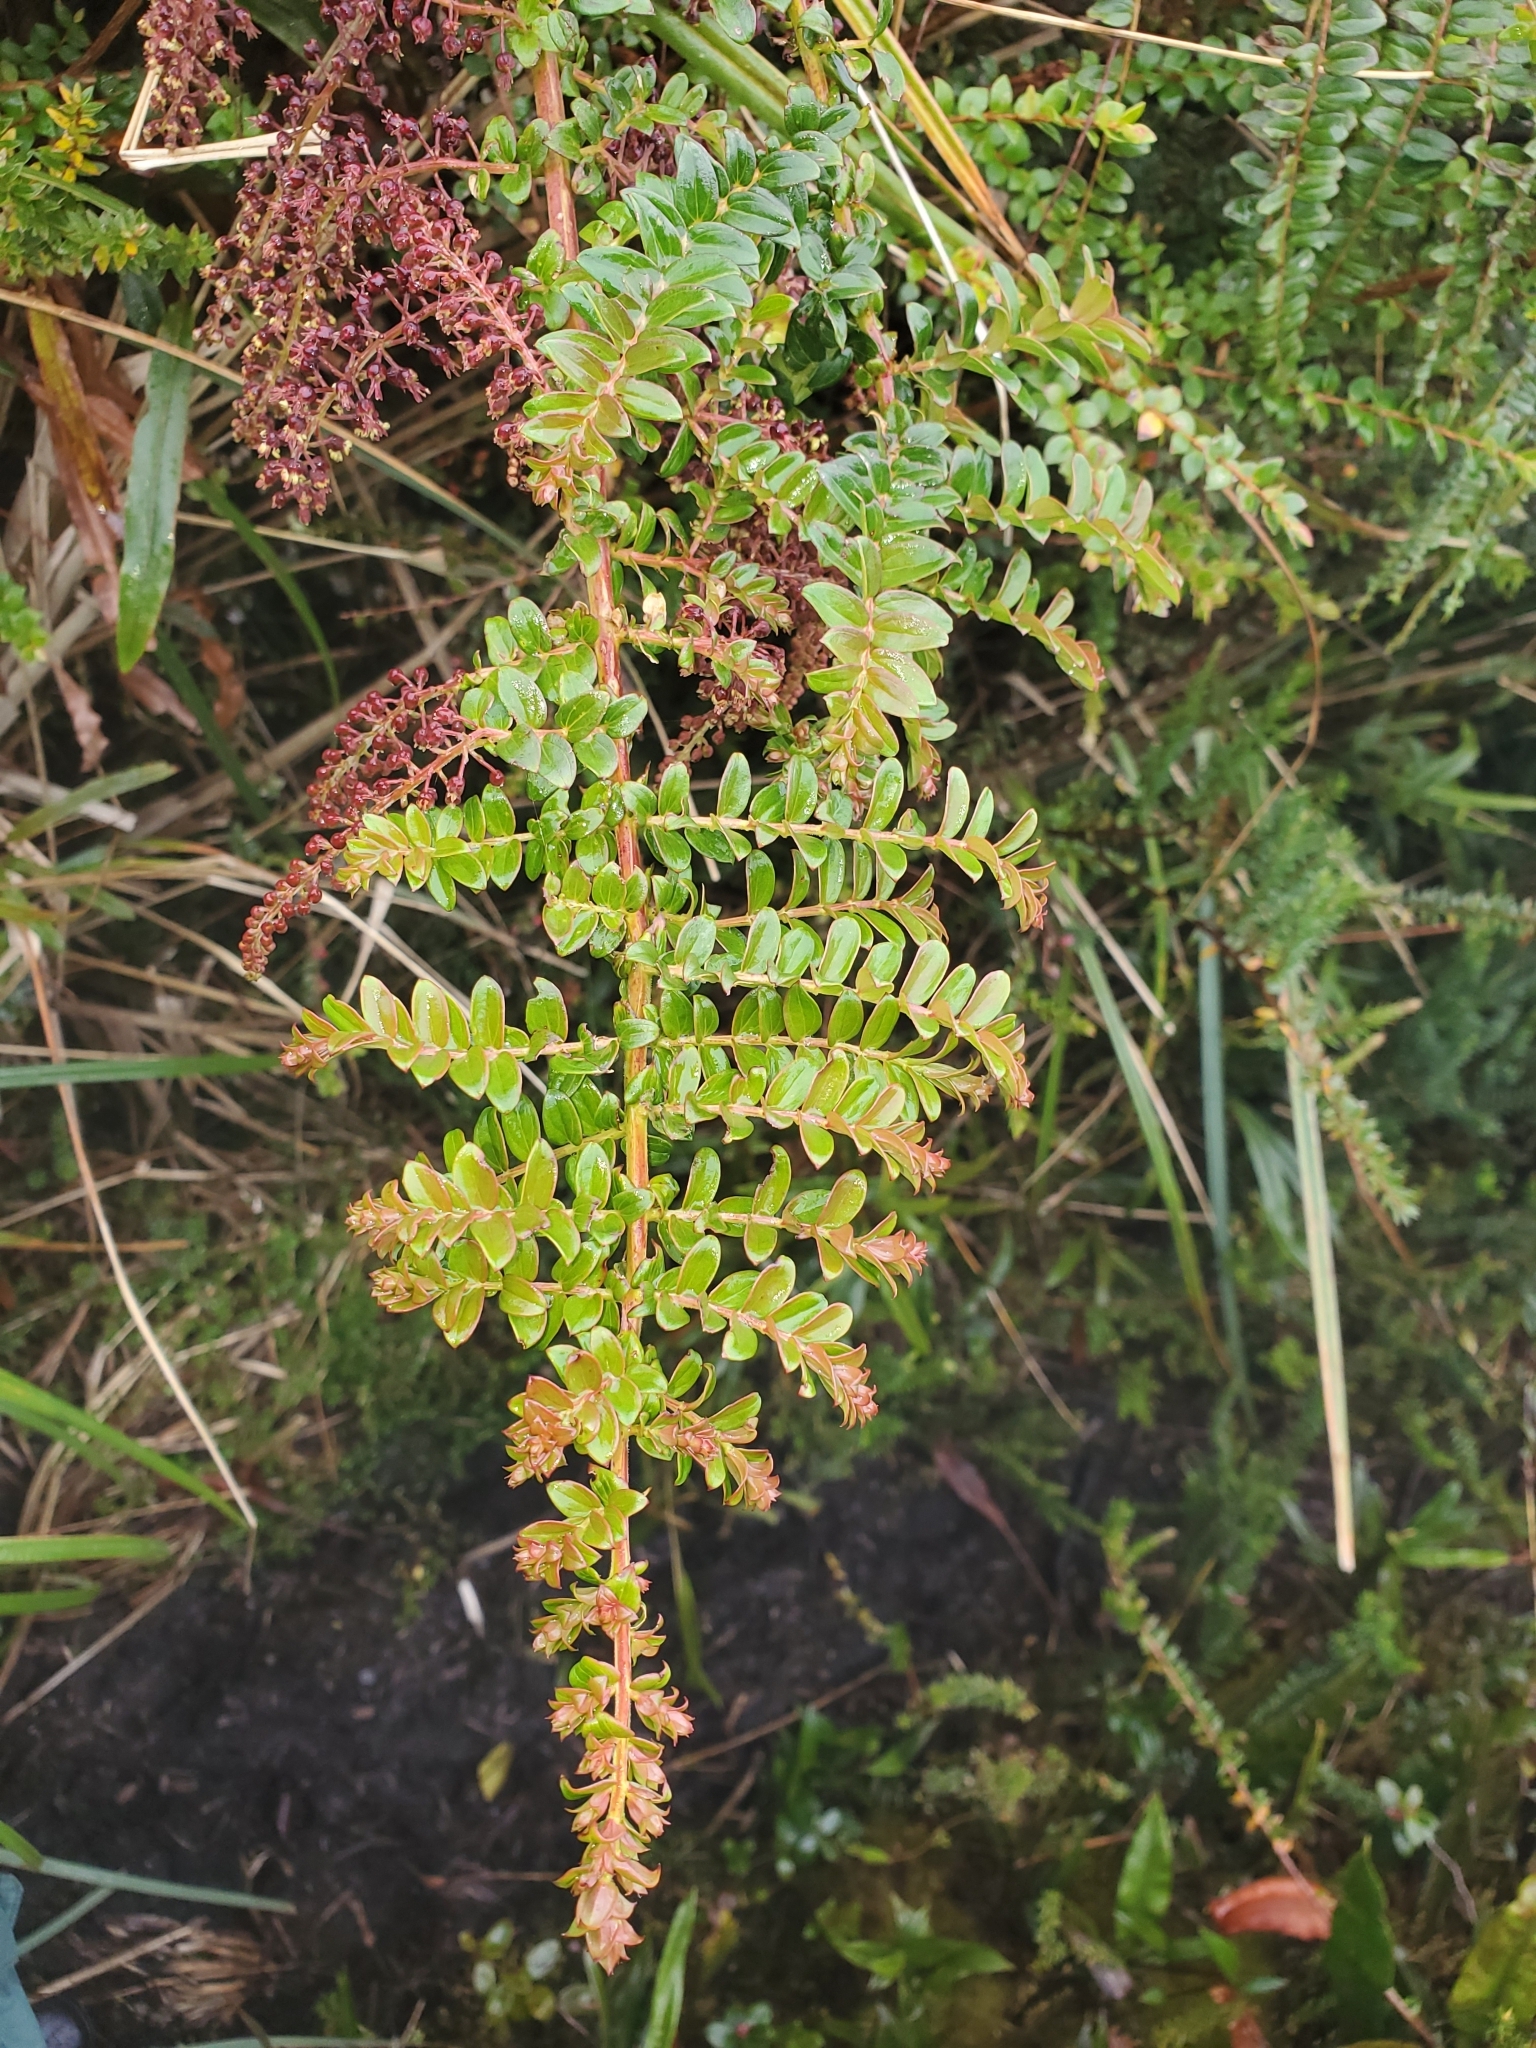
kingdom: Plantae
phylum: Tracheophyta
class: Magnoliopsida
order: Cucurbitales
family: Coriariaceae
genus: Coriaria
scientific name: Coriaria ruscifolia
